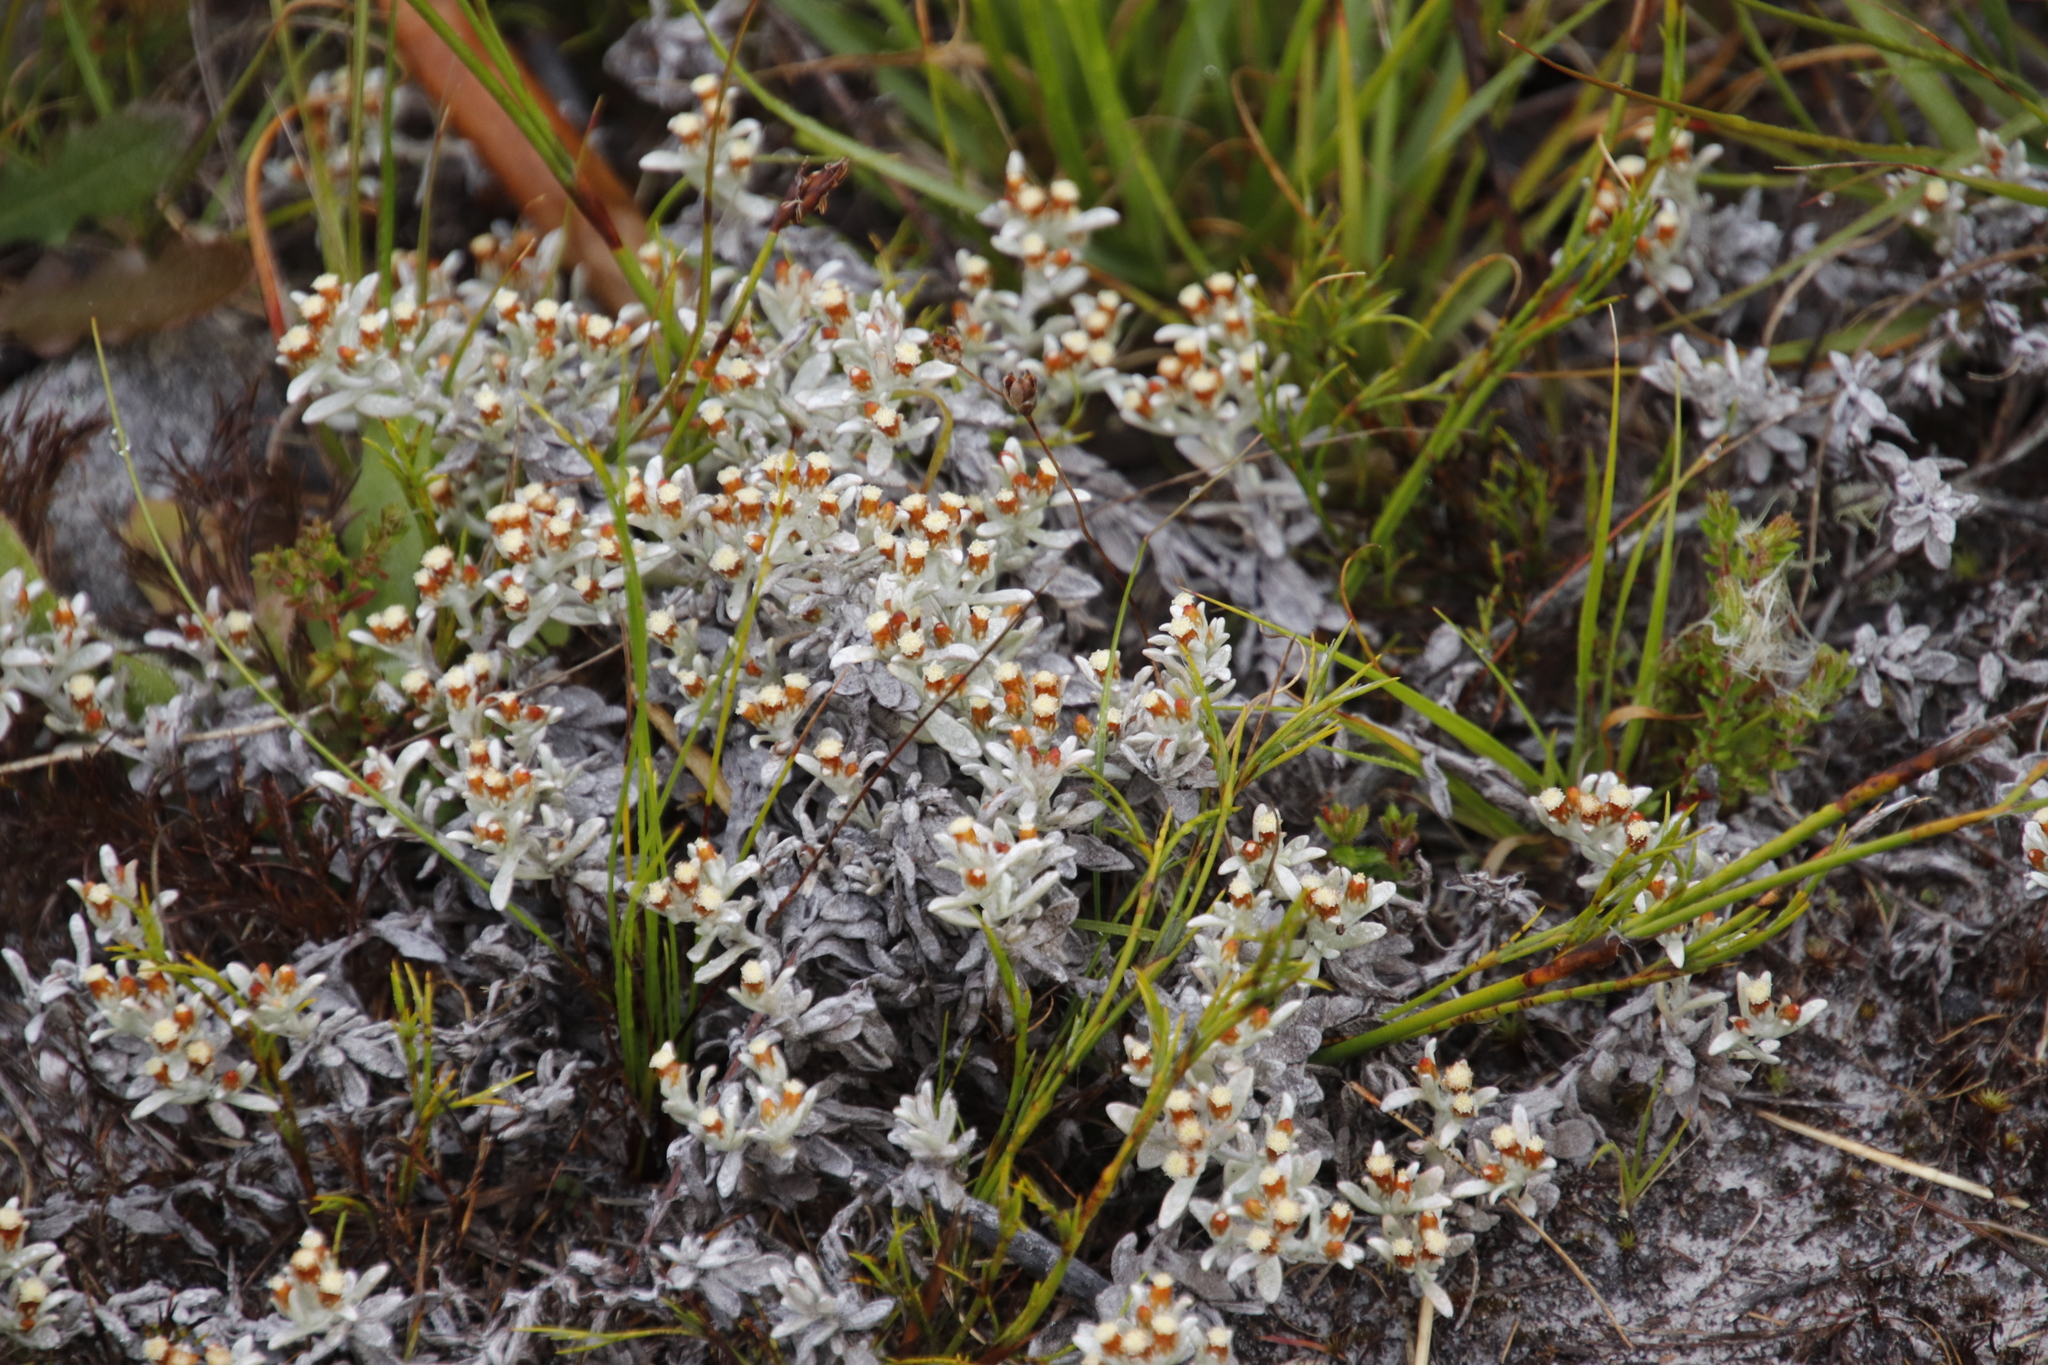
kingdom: Plantae
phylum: Tracheophyta
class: Magnoliopsida
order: Asterales
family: Asteraceae
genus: Helichrysum
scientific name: Helichrysum litorale
